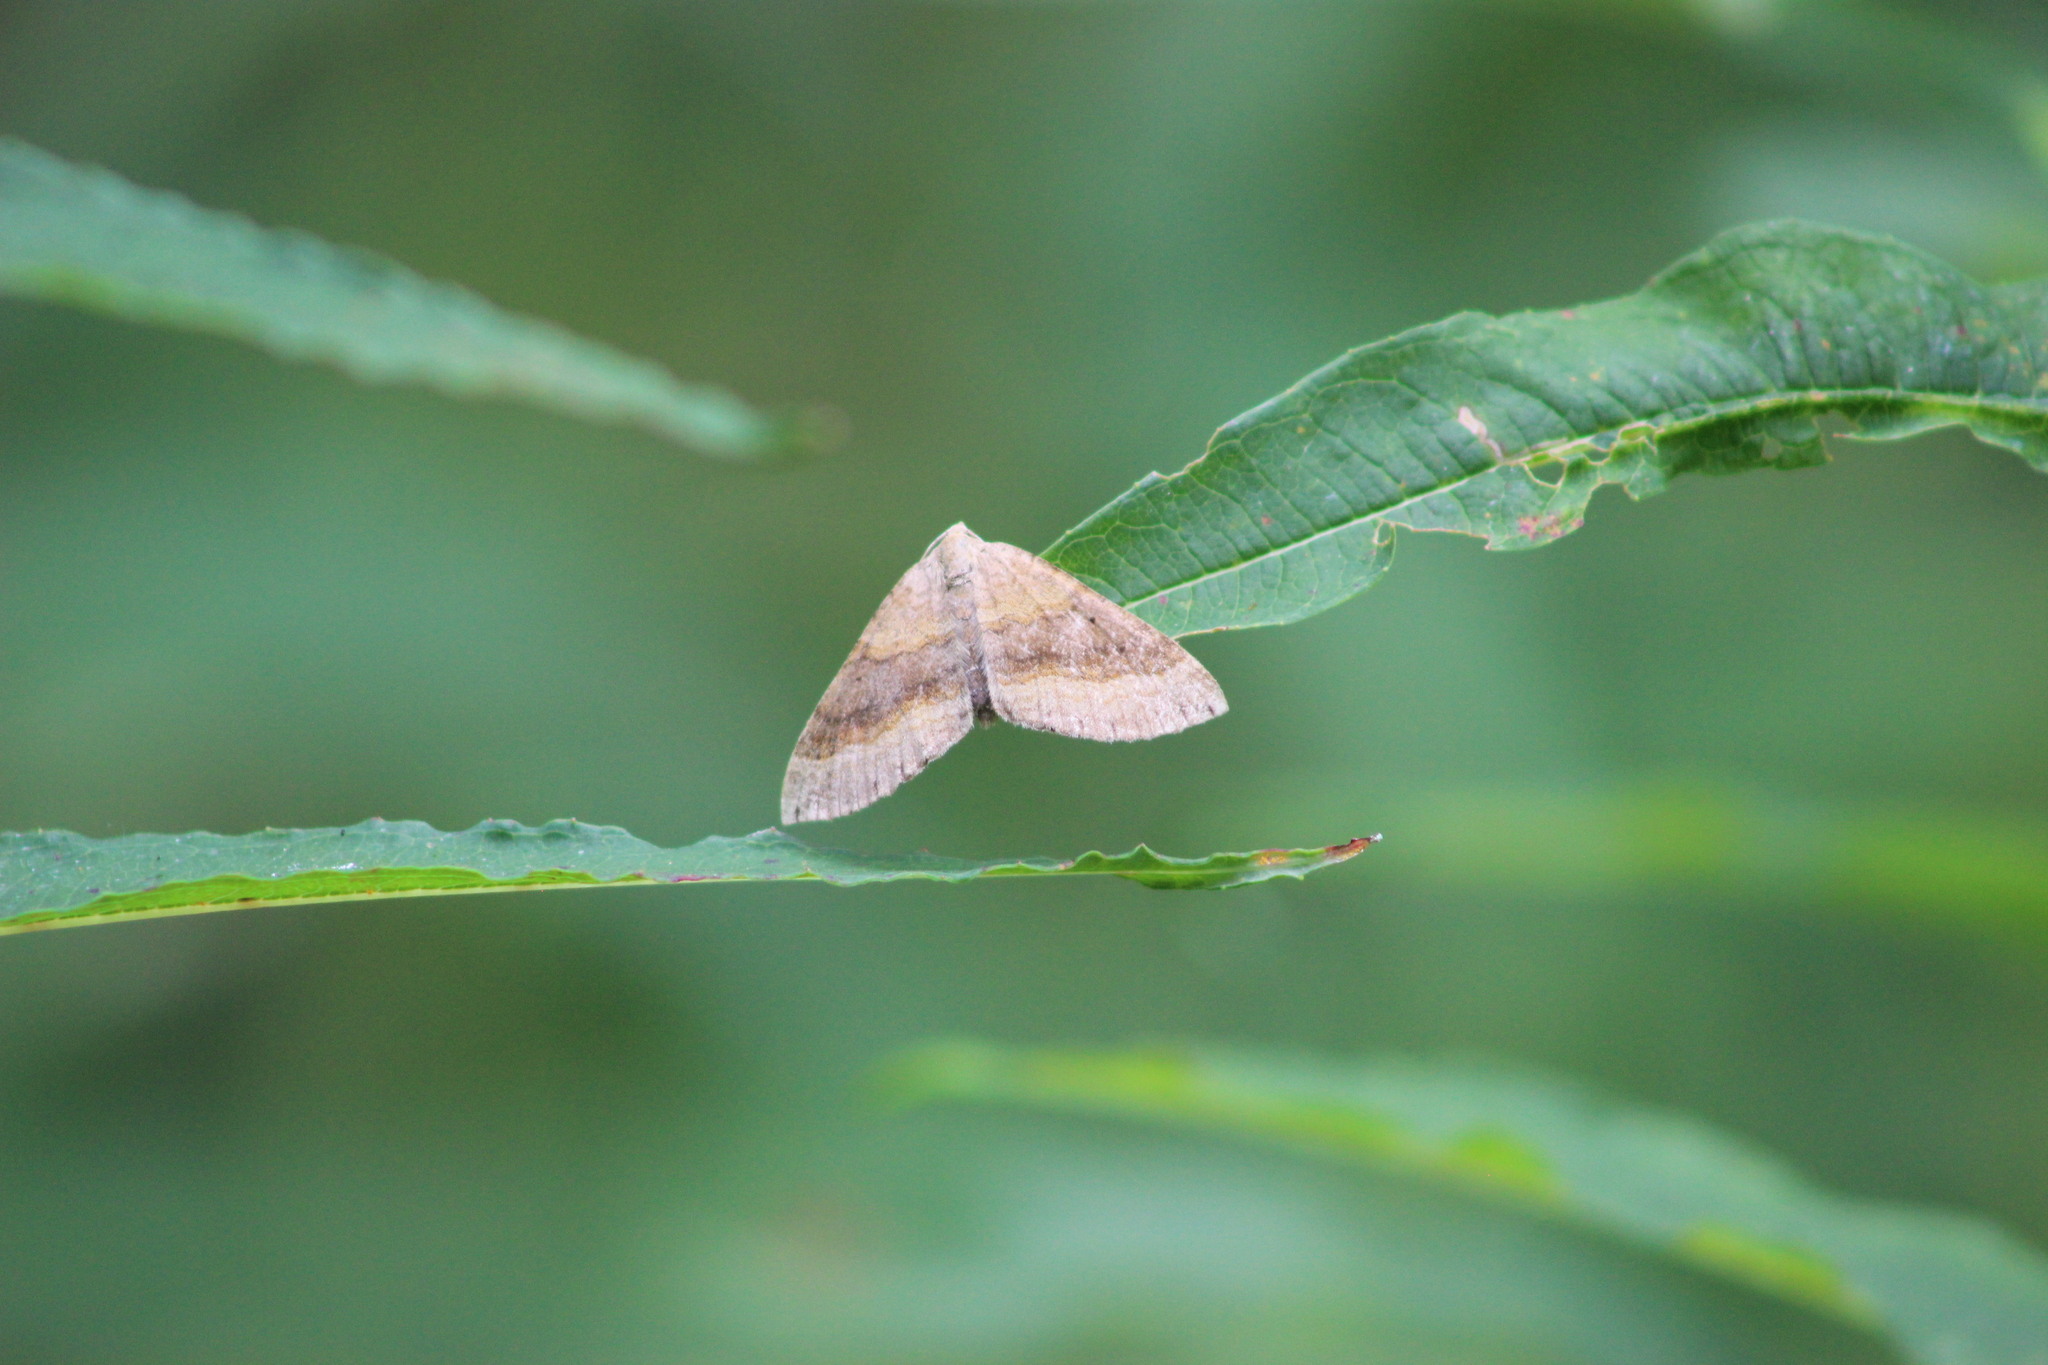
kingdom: Animalia
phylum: Arthropoda
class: Insecta
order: Lepidoptera
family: Geometridae
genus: Scotopteryx
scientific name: Scotopteryx chenopodiata
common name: Shaded broad-bar
